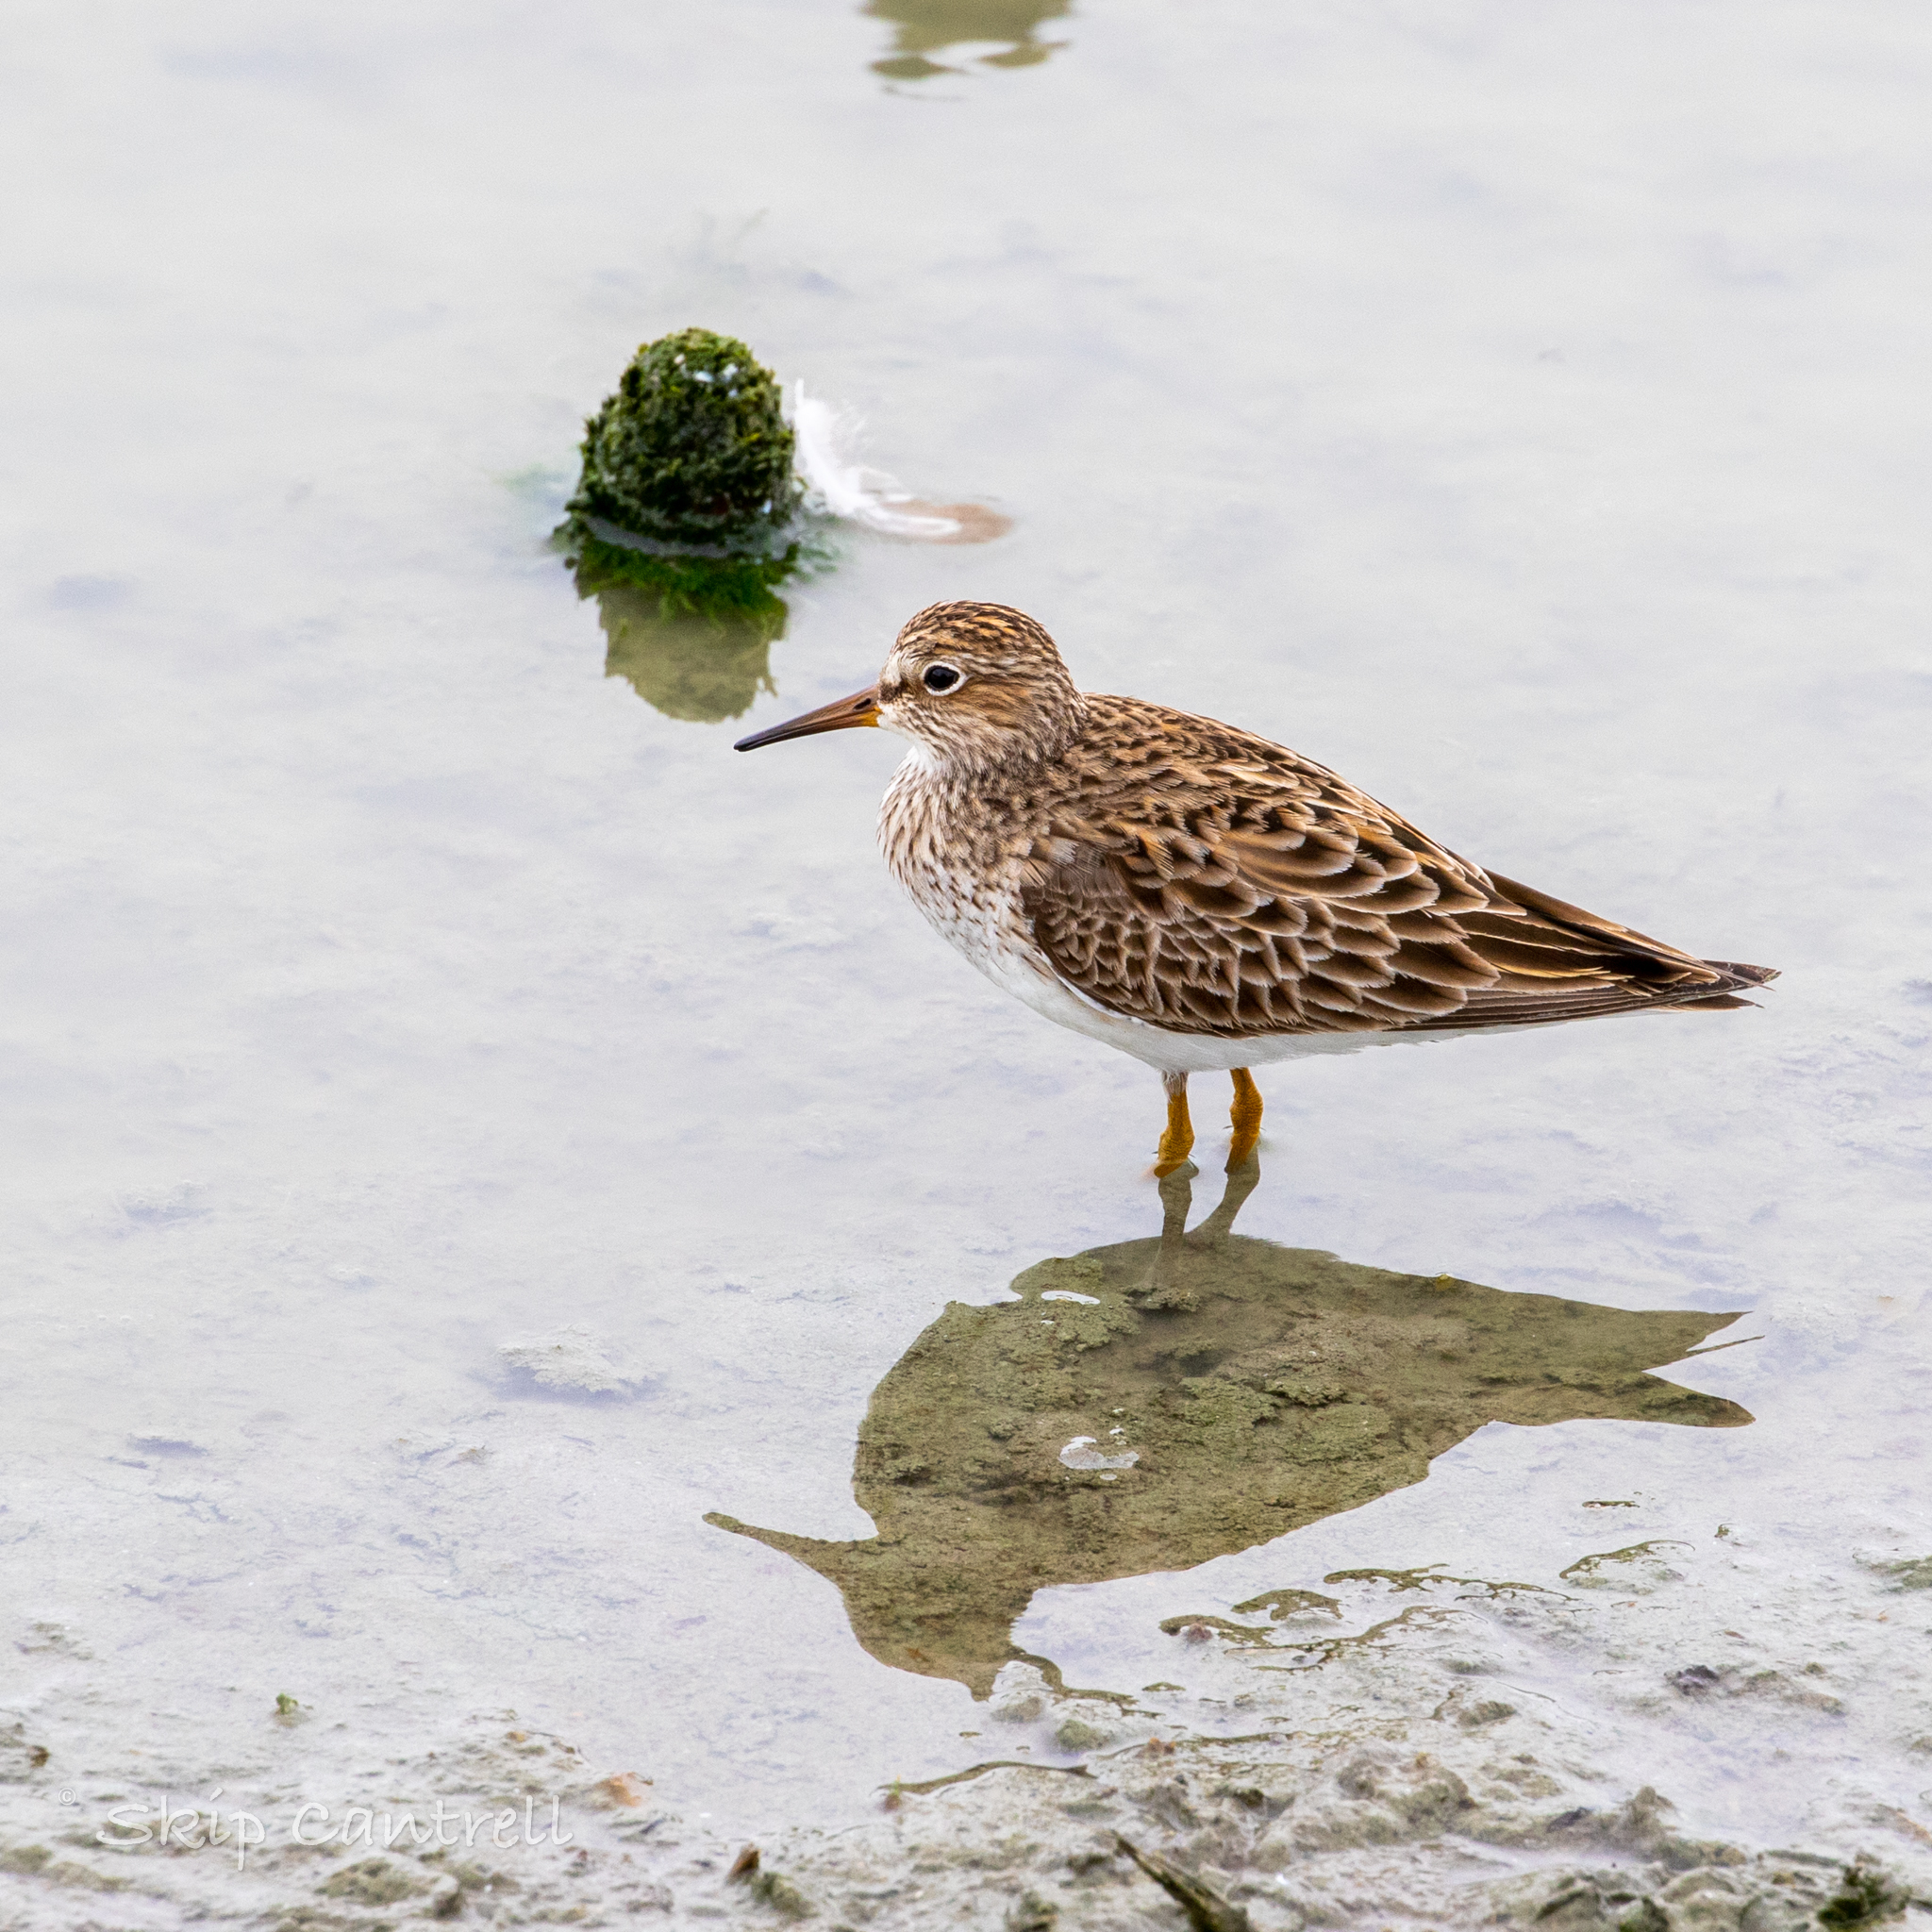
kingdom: Animalia
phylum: Chordata
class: Aves
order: Charadriiformes
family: Scolopacidae
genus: Calidris
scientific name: Calidris melanotos
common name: Pectoral sandpiper
